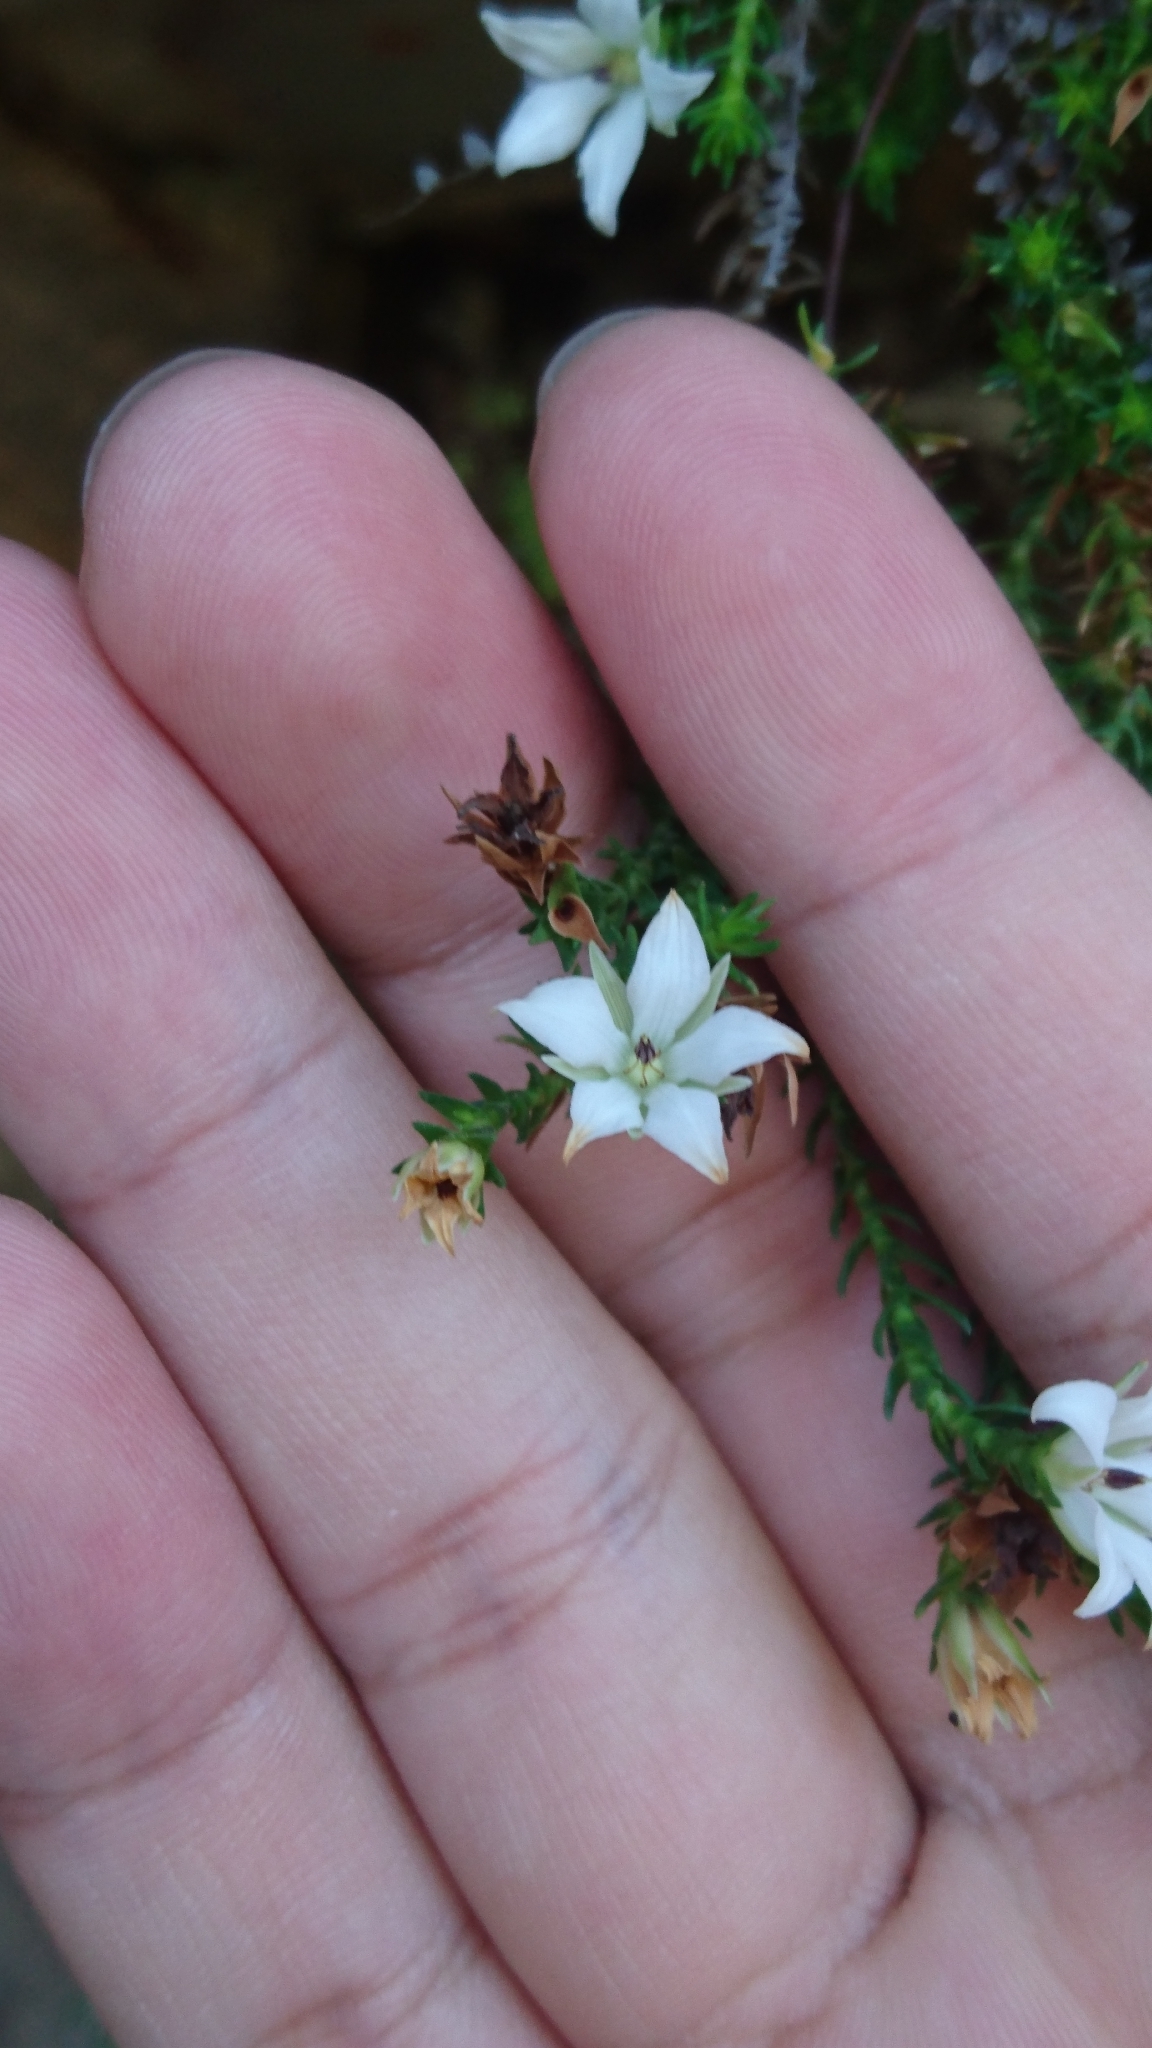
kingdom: Plantae
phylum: Tracheophyta
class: Magnoliopsida
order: Ericales
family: Ericaceae
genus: Sprengelia
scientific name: Sprengelia monticola
